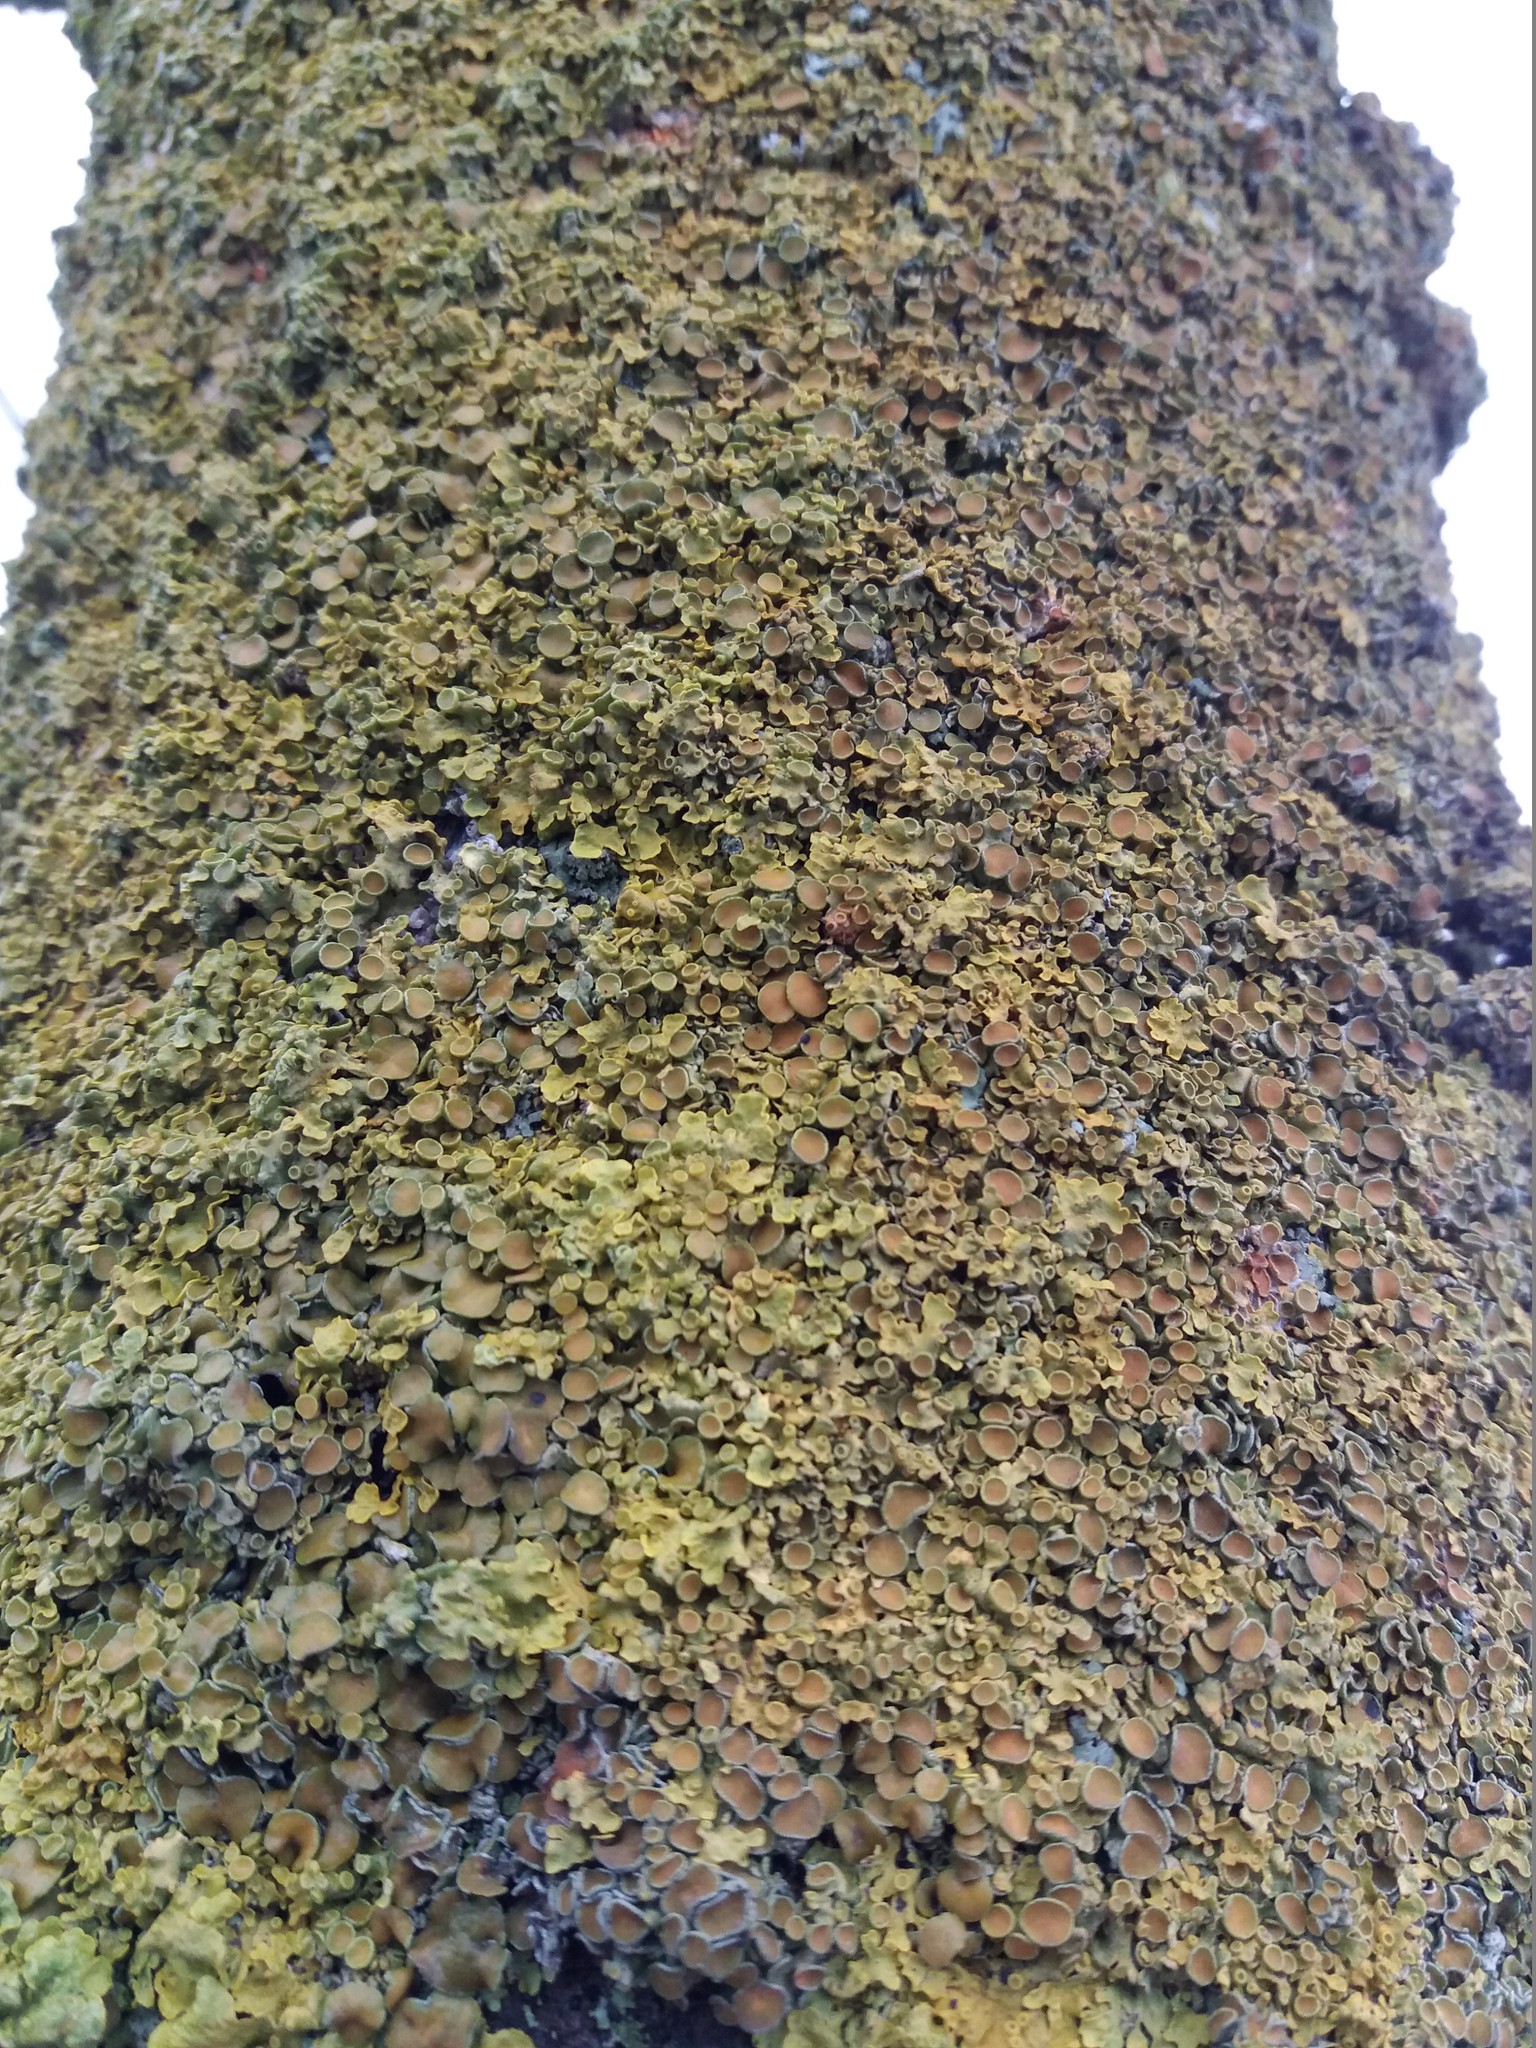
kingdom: Fungi
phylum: Ascomycota
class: Lecanoromycetes
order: Teloschistales
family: Teloschistaceae
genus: Xanthoria
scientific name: Xanthoria parietina
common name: Common orange lichen
